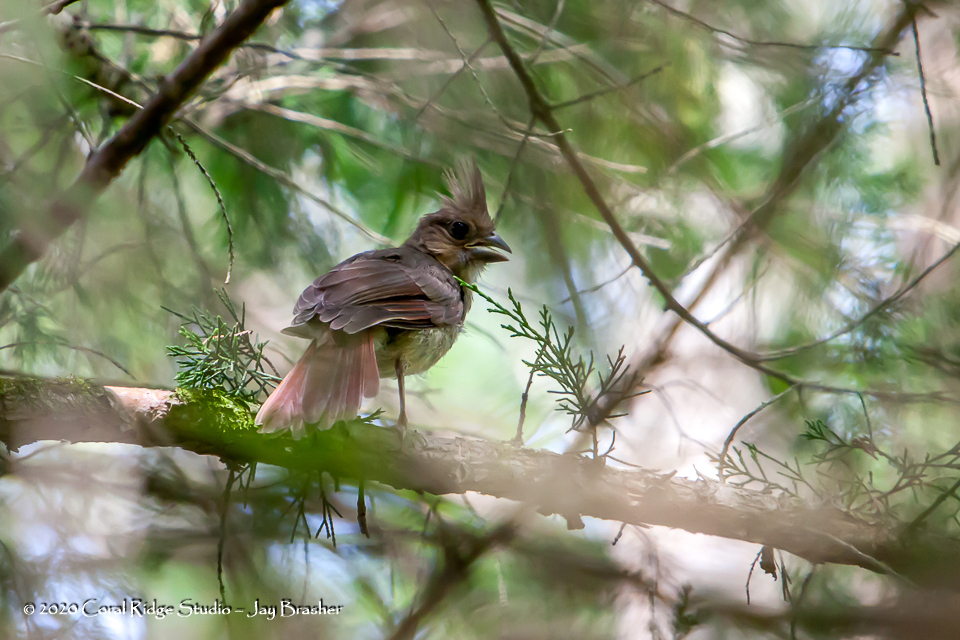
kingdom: Animalia
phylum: Chordata
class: Aves
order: Passeriformes
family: Cardinalidae
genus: Cardinalis
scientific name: Cardinalis cardinalis
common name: Northern cardinal
